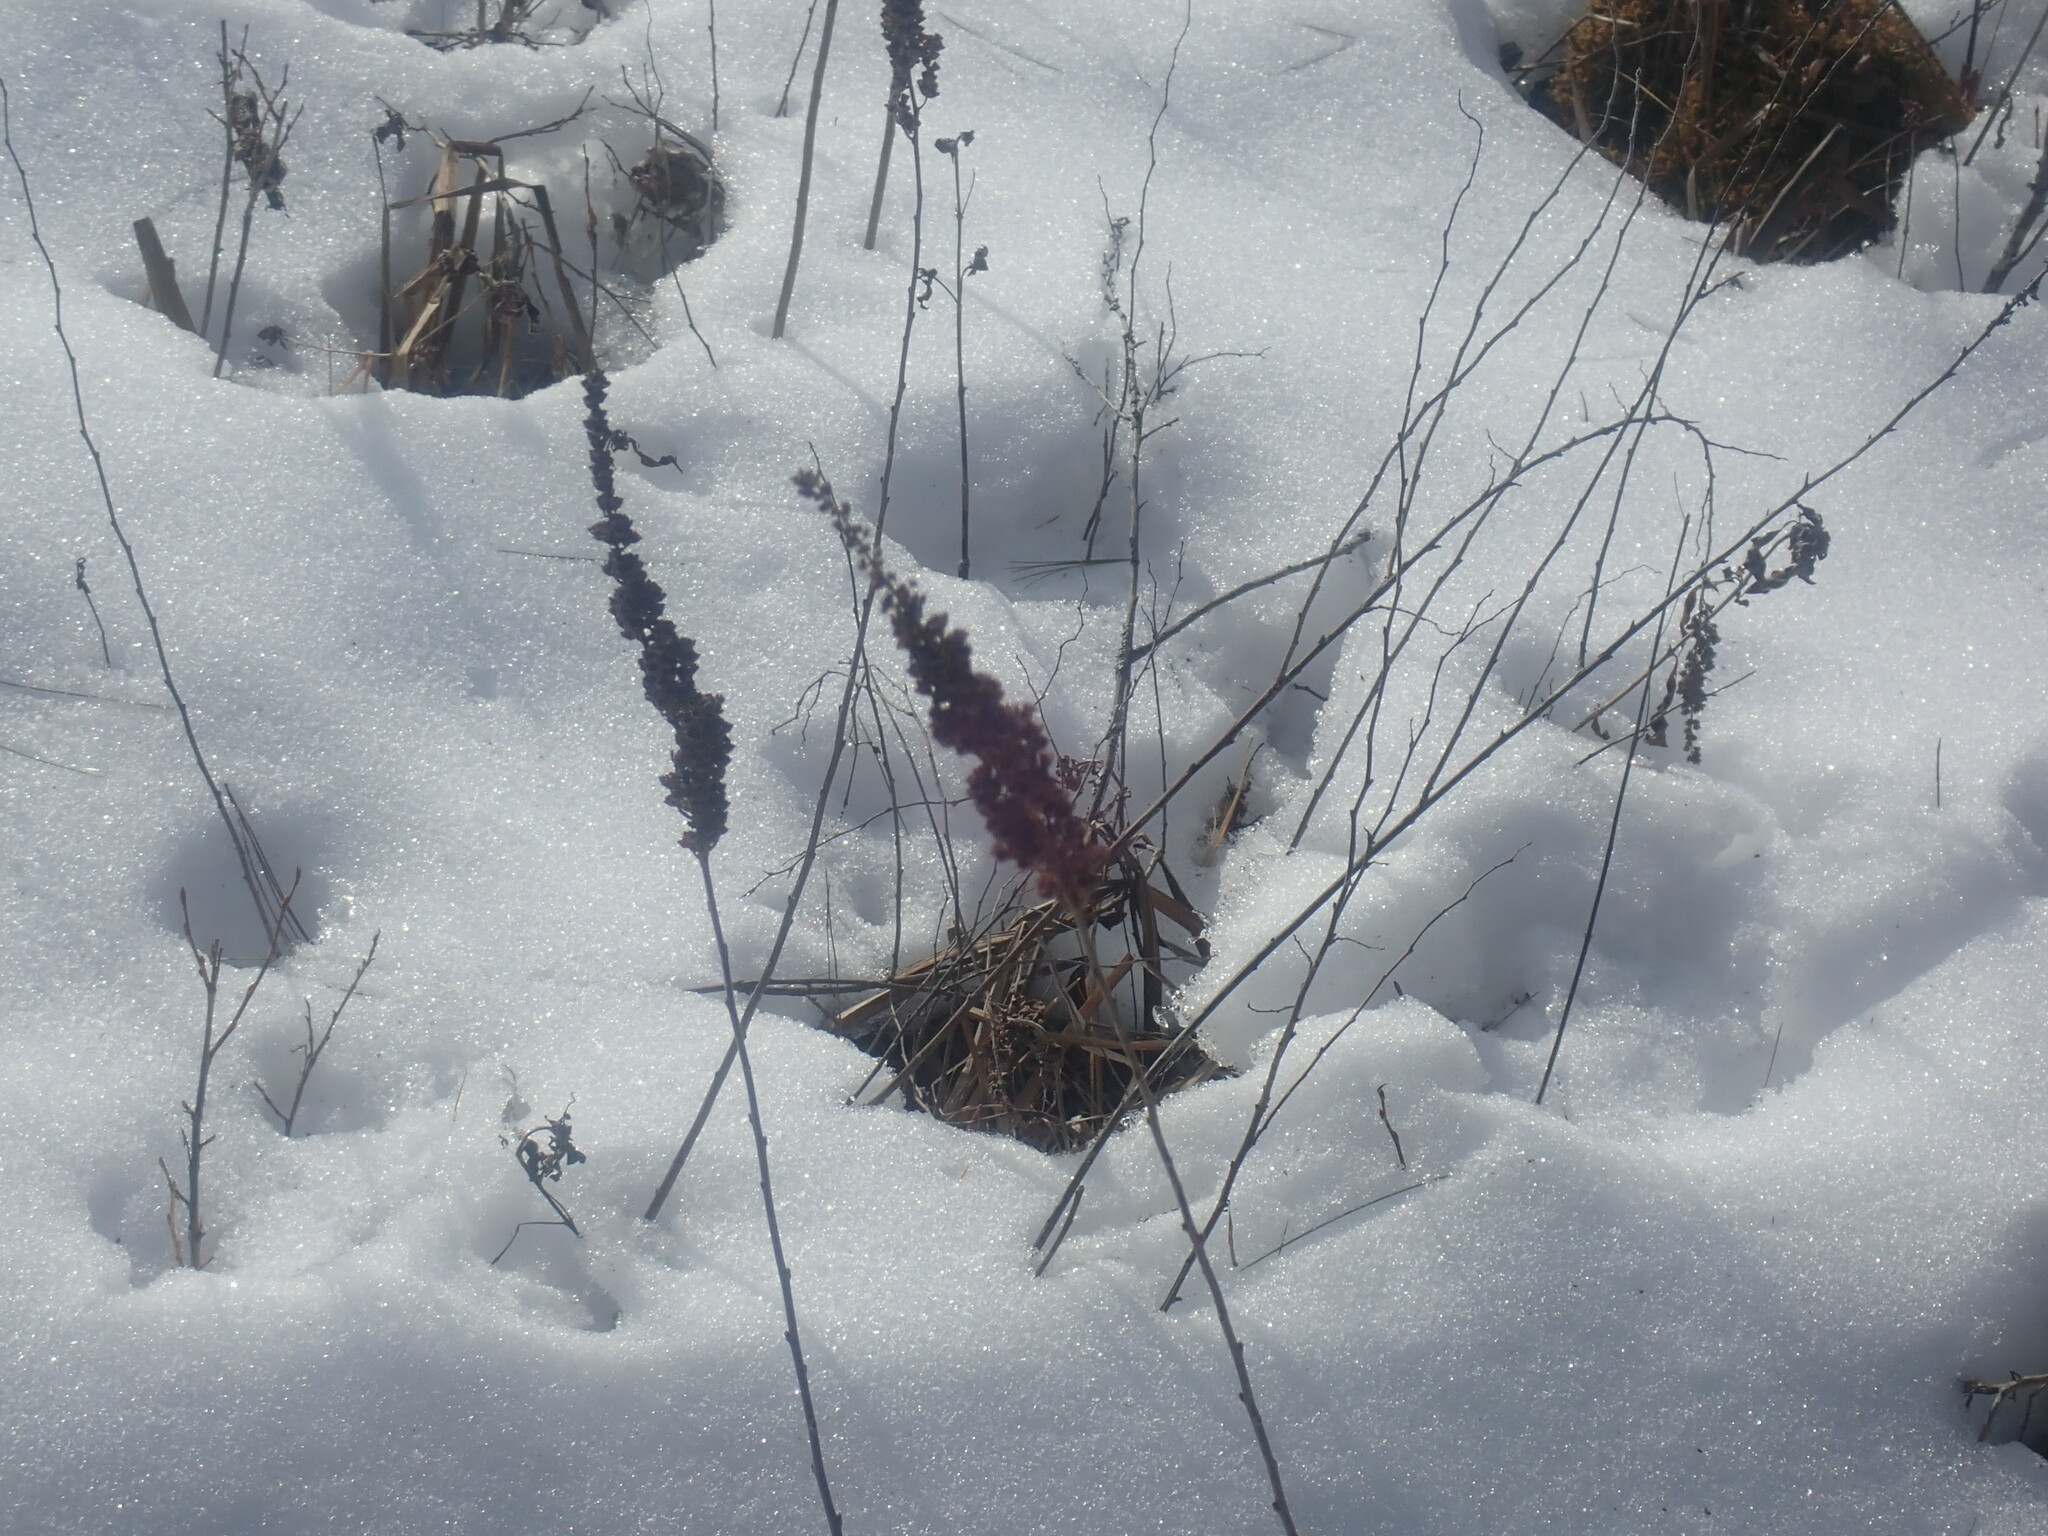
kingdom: Plantae
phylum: Tracheophyta
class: Magnoliopsida
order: Rosales
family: Rosaceae
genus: Spiraea
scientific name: Spiraea tomentosa
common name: Hardhack
